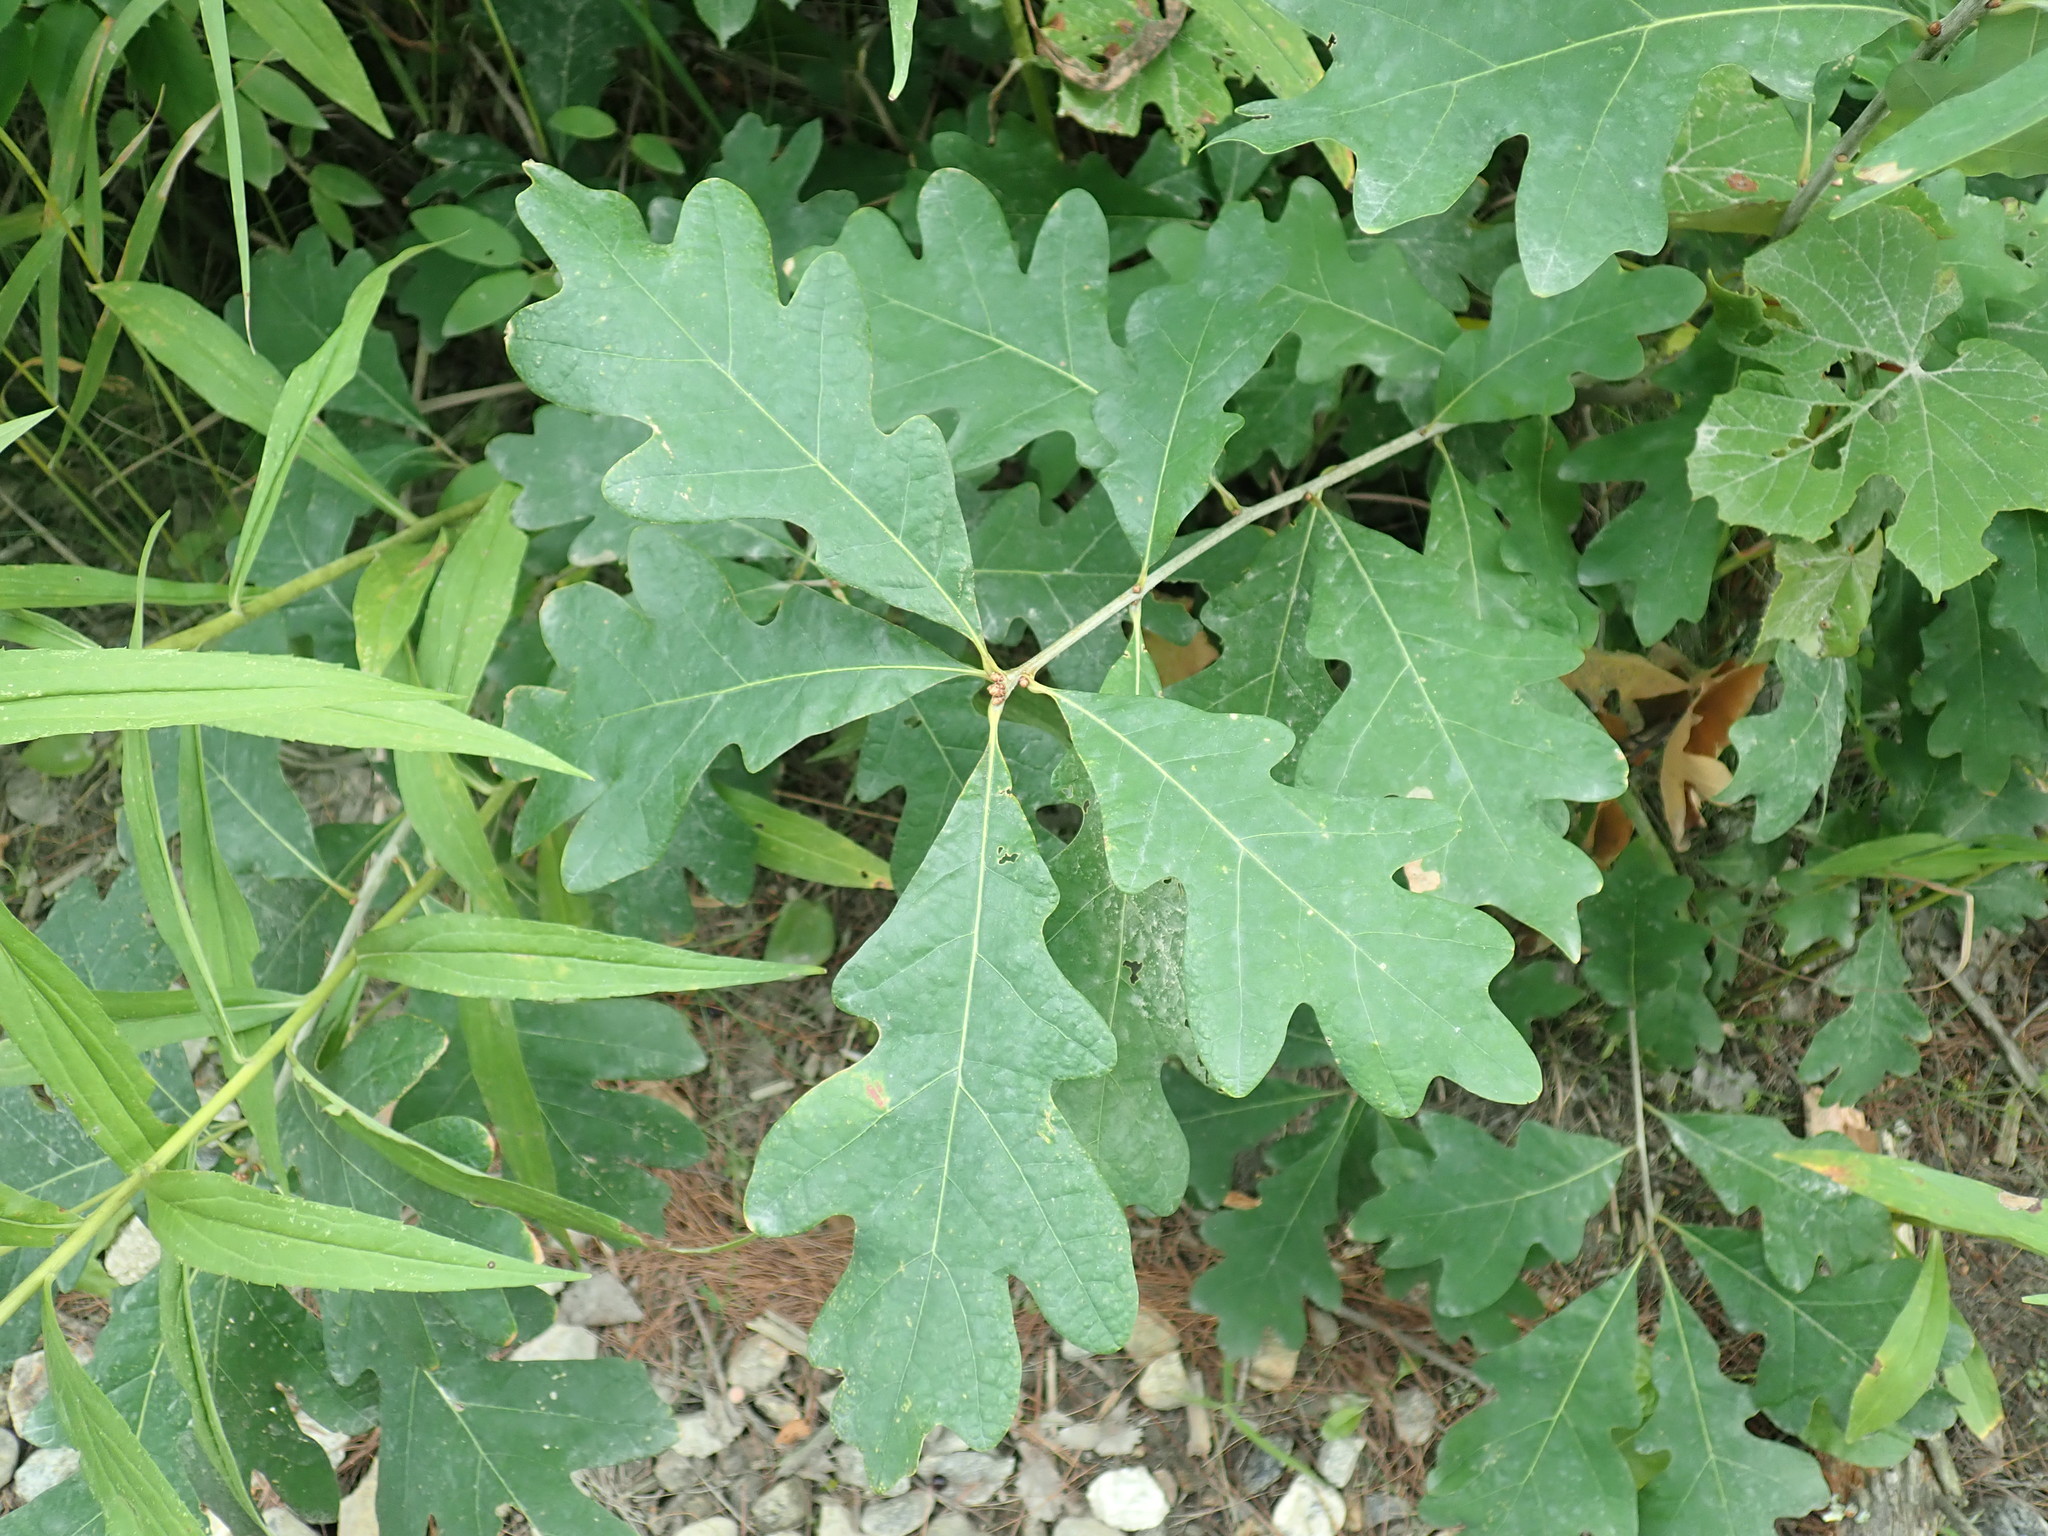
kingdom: Plantae
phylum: Tracheophyta
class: Magnoliopsida
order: Fagales
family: Fagaceae
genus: Quercus
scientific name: Quercus alba
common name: White oak
